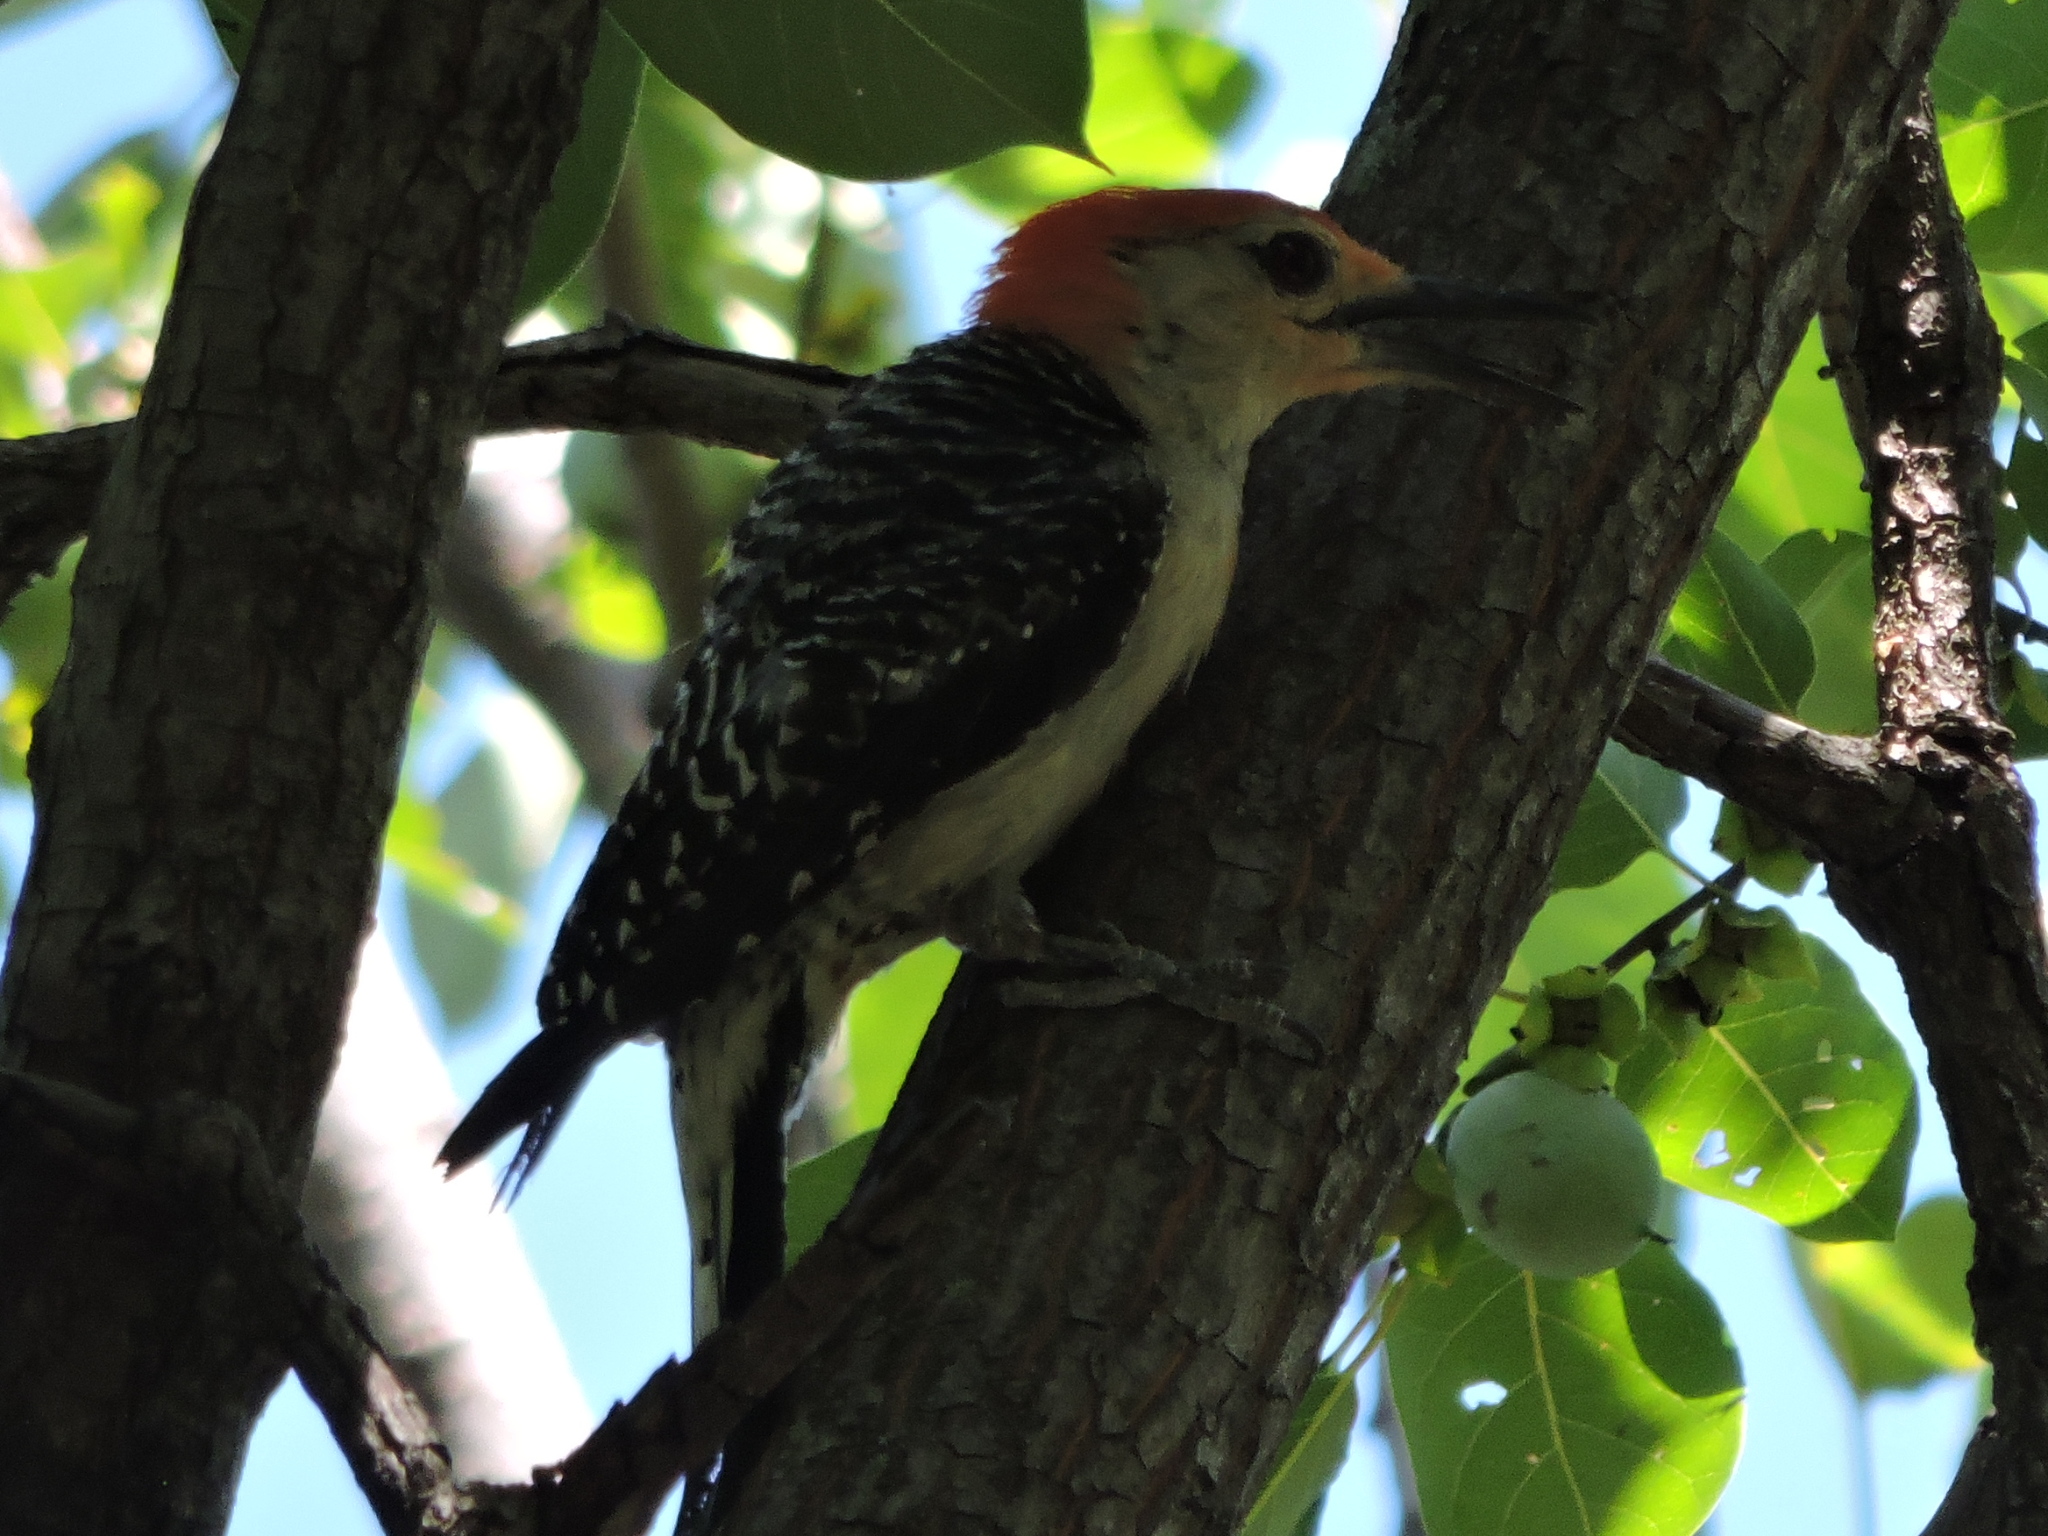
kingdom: Animalia
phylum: Chordata
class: Aves
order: Piciformes
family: Picidae
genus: Melanerpes
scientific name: Melanerpes carolinus
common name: Red-bellied woodpecker
